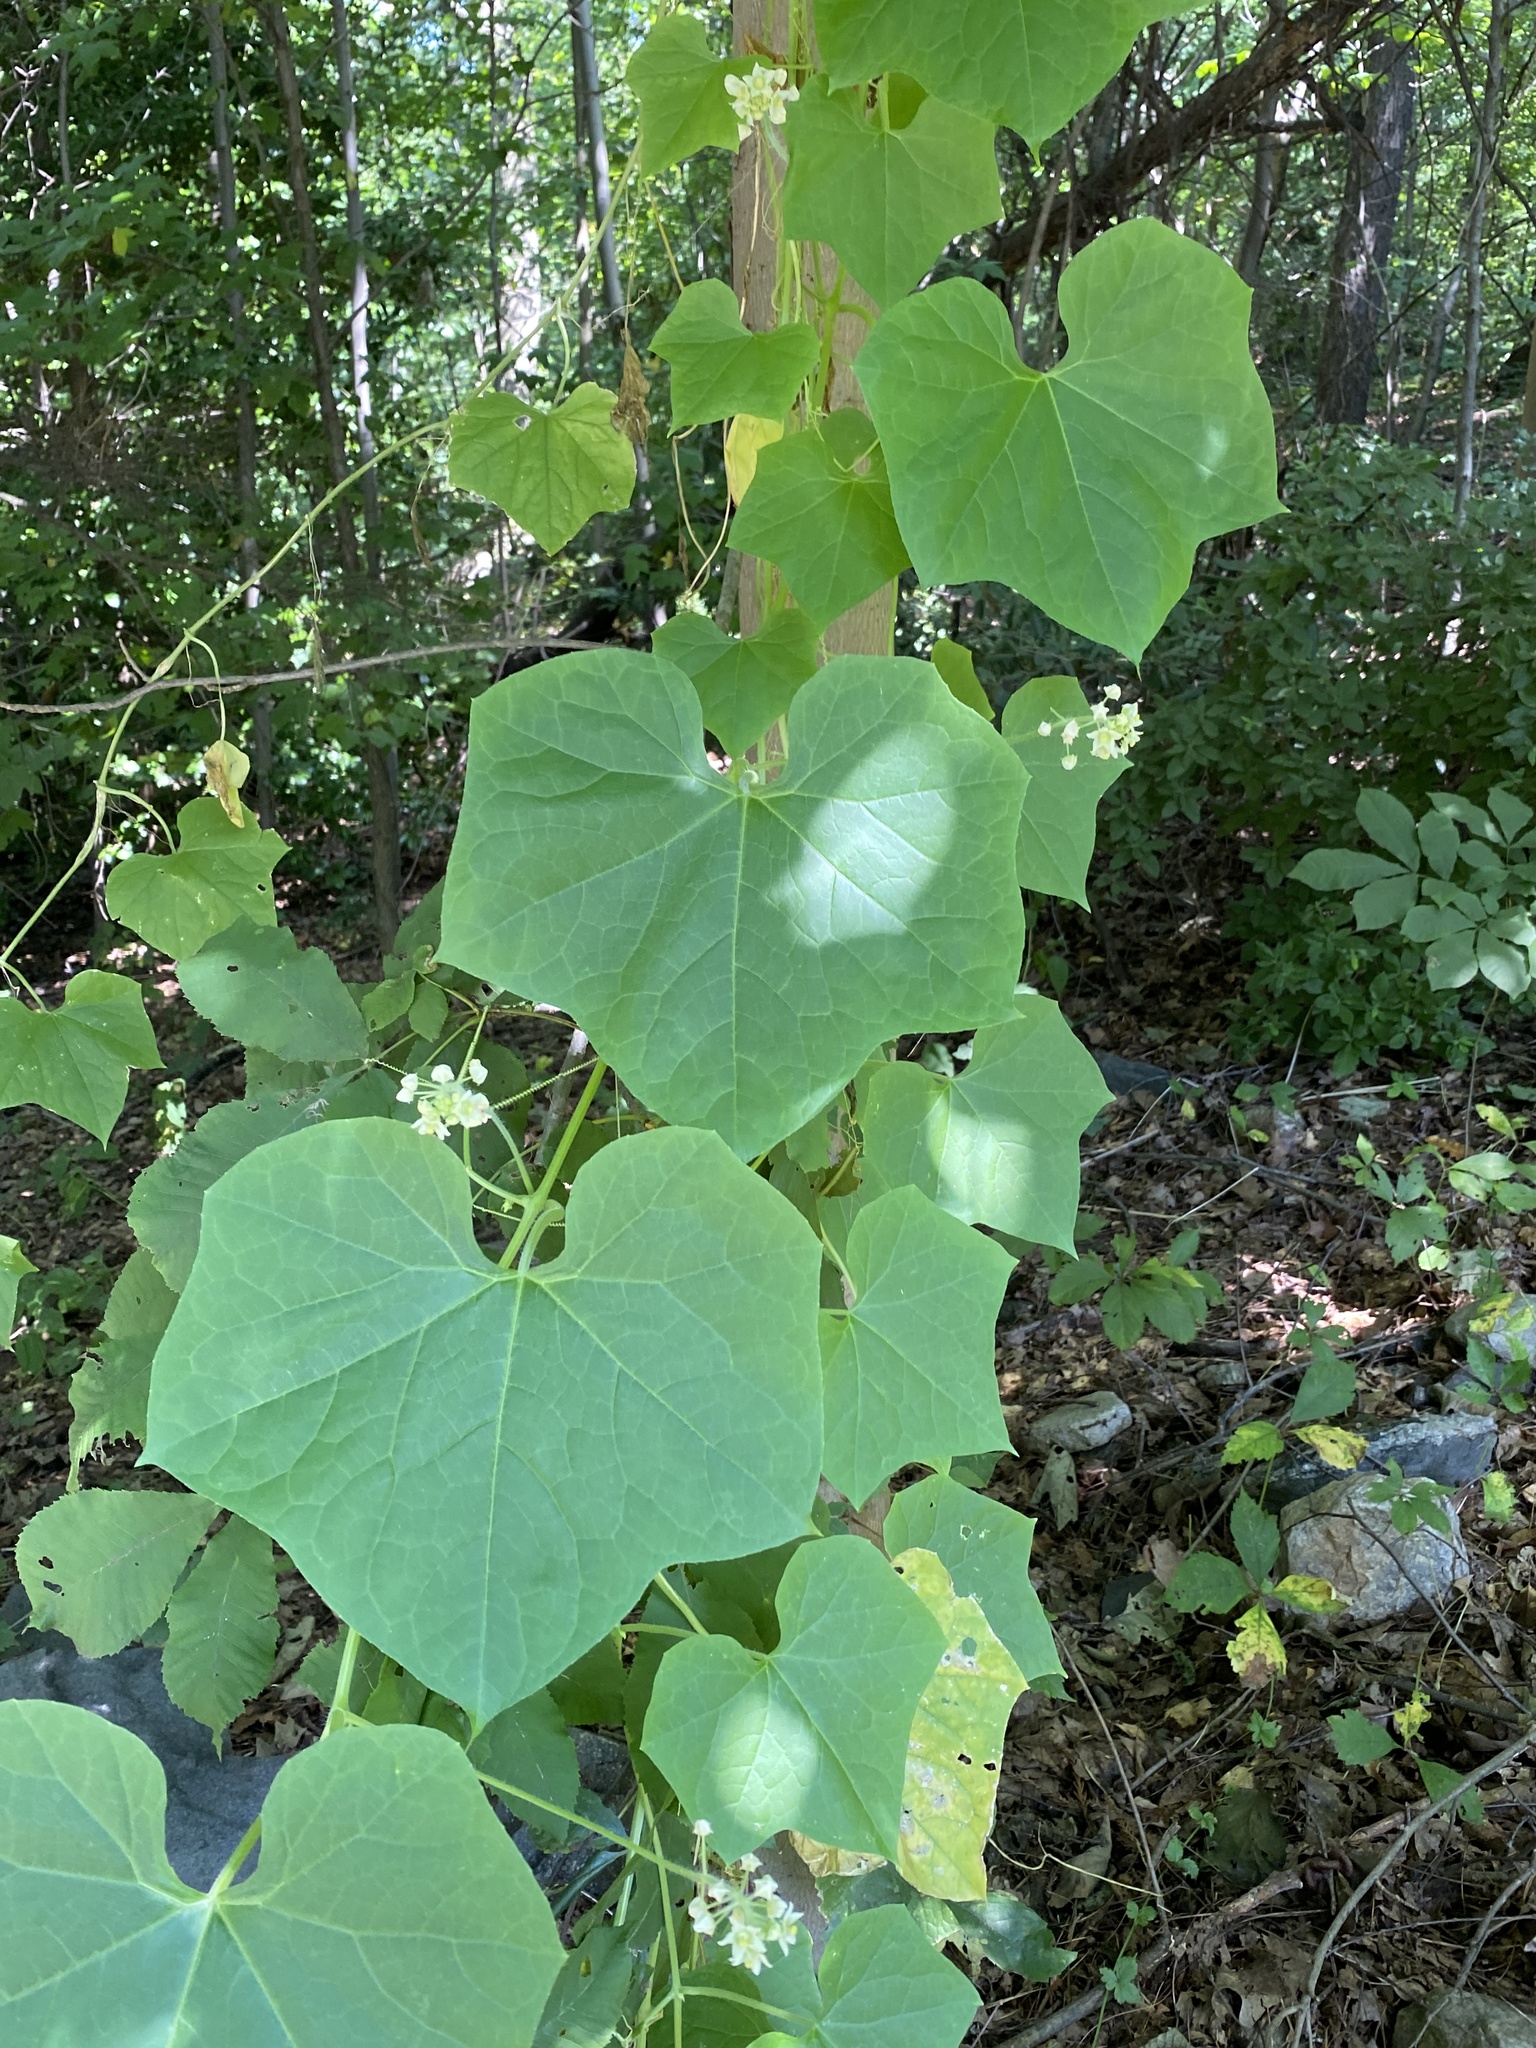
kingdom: Plantae
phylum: Tracheophyta
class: Magnoliopsida
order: Cucurbitales
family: Cucurbitaceae
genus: Sicyos
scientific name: Sicyos angulatus
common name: Angled burr cucumber
